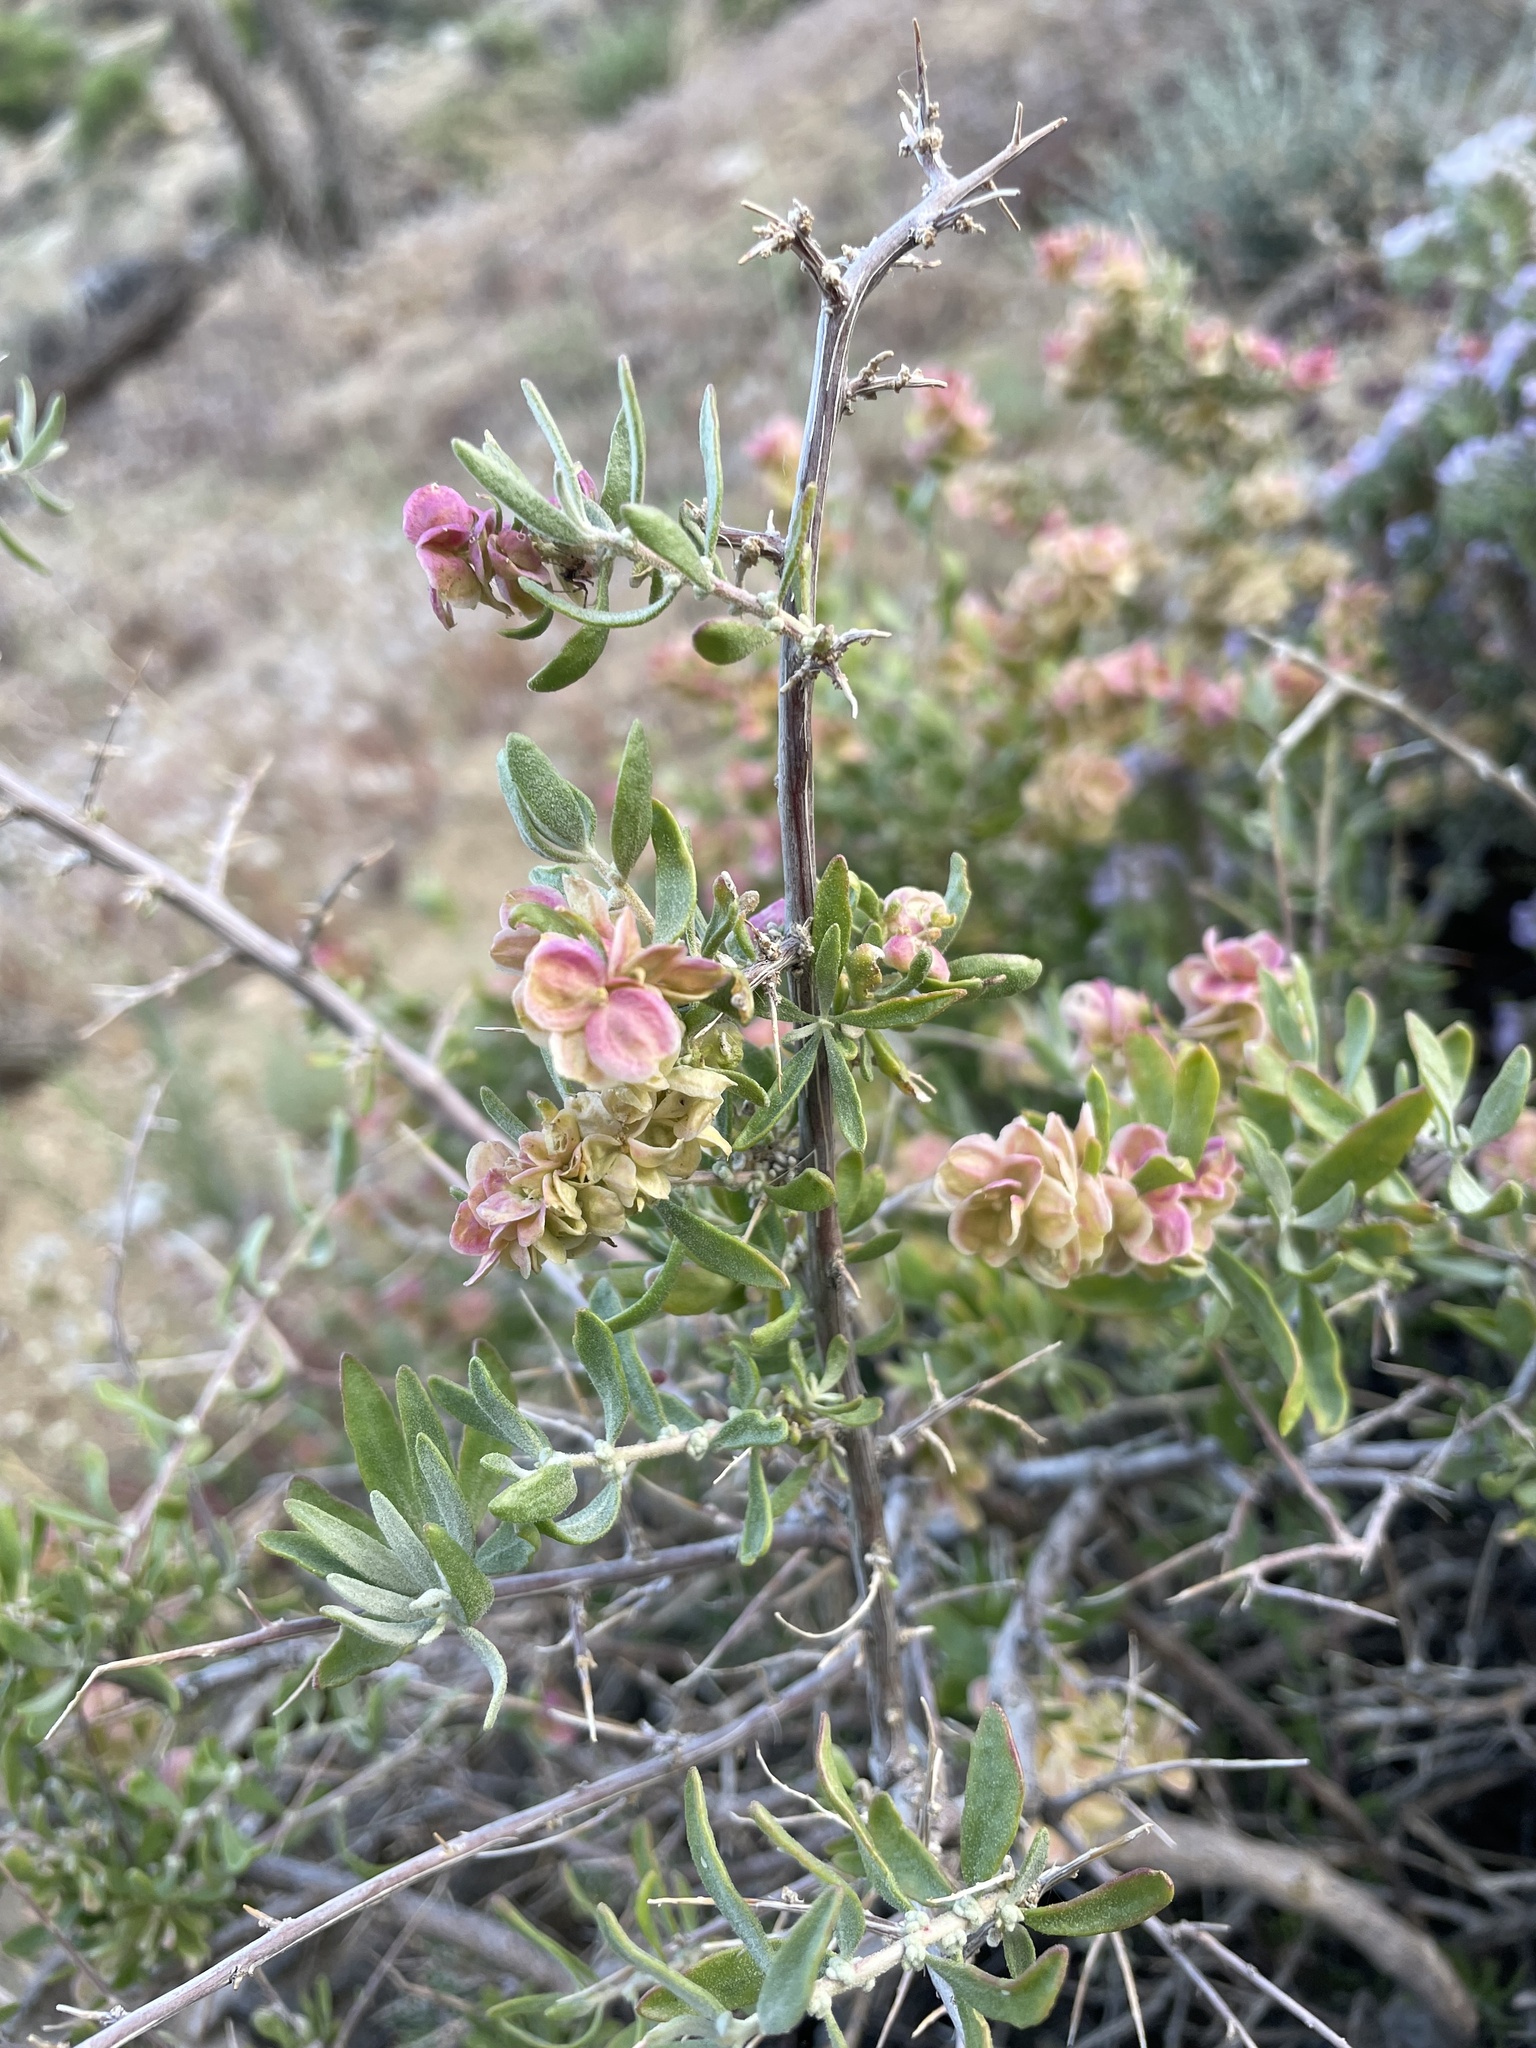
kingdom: Plantae
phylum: Tracheophyta
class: Magnoliopsida
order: Caryophyllales
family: Amaranthaceae
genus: Grayia
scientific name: Grayia spinosa
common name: Spiny hopsage
